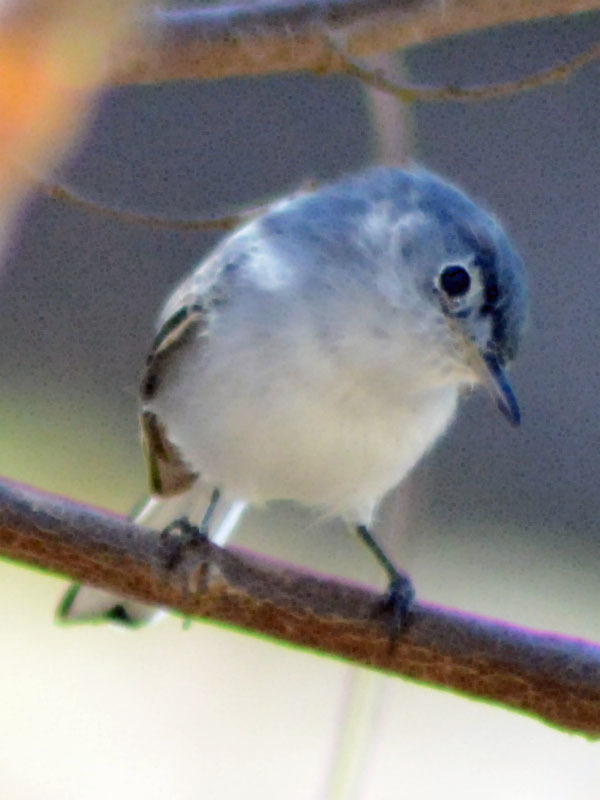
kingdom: Animalia
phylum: Chordata
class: Aves
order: Passeriformes
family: Polioptilidae
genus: Polioptila
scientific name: Polioptila caerulea
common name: Blue-gray gnatcatcher
